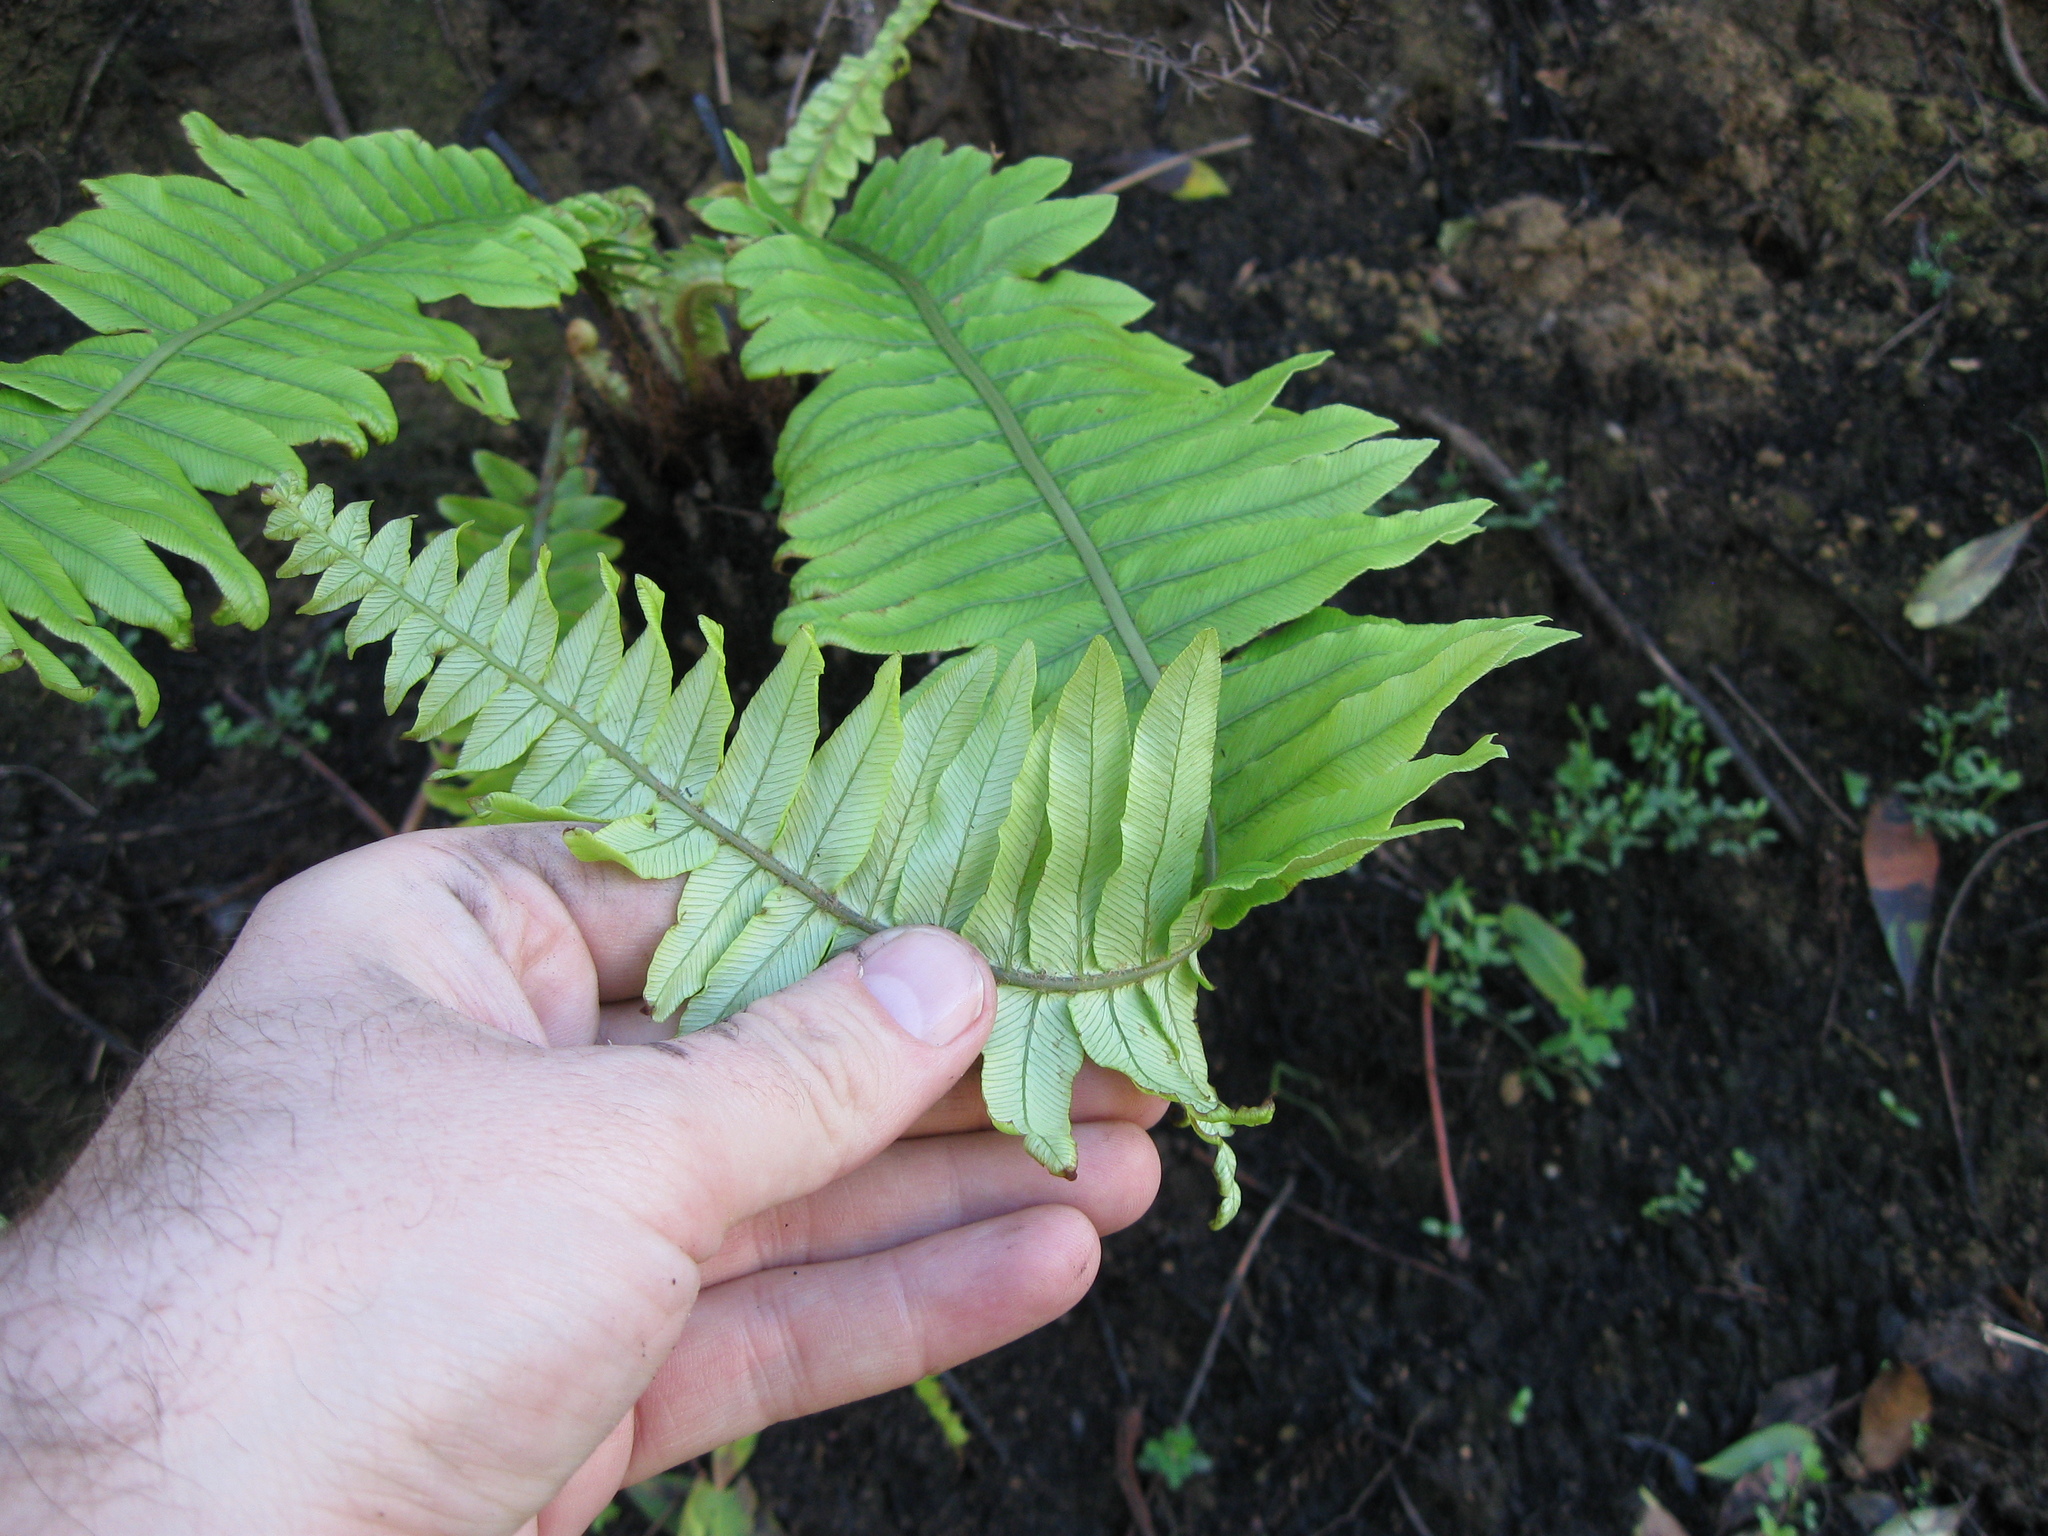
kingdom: Plantae
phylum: Tracheophyta
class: Polypodiopsida
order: Polypodiales
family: Blechnaceae
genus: Lomaria
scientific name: Lomaria discolor
